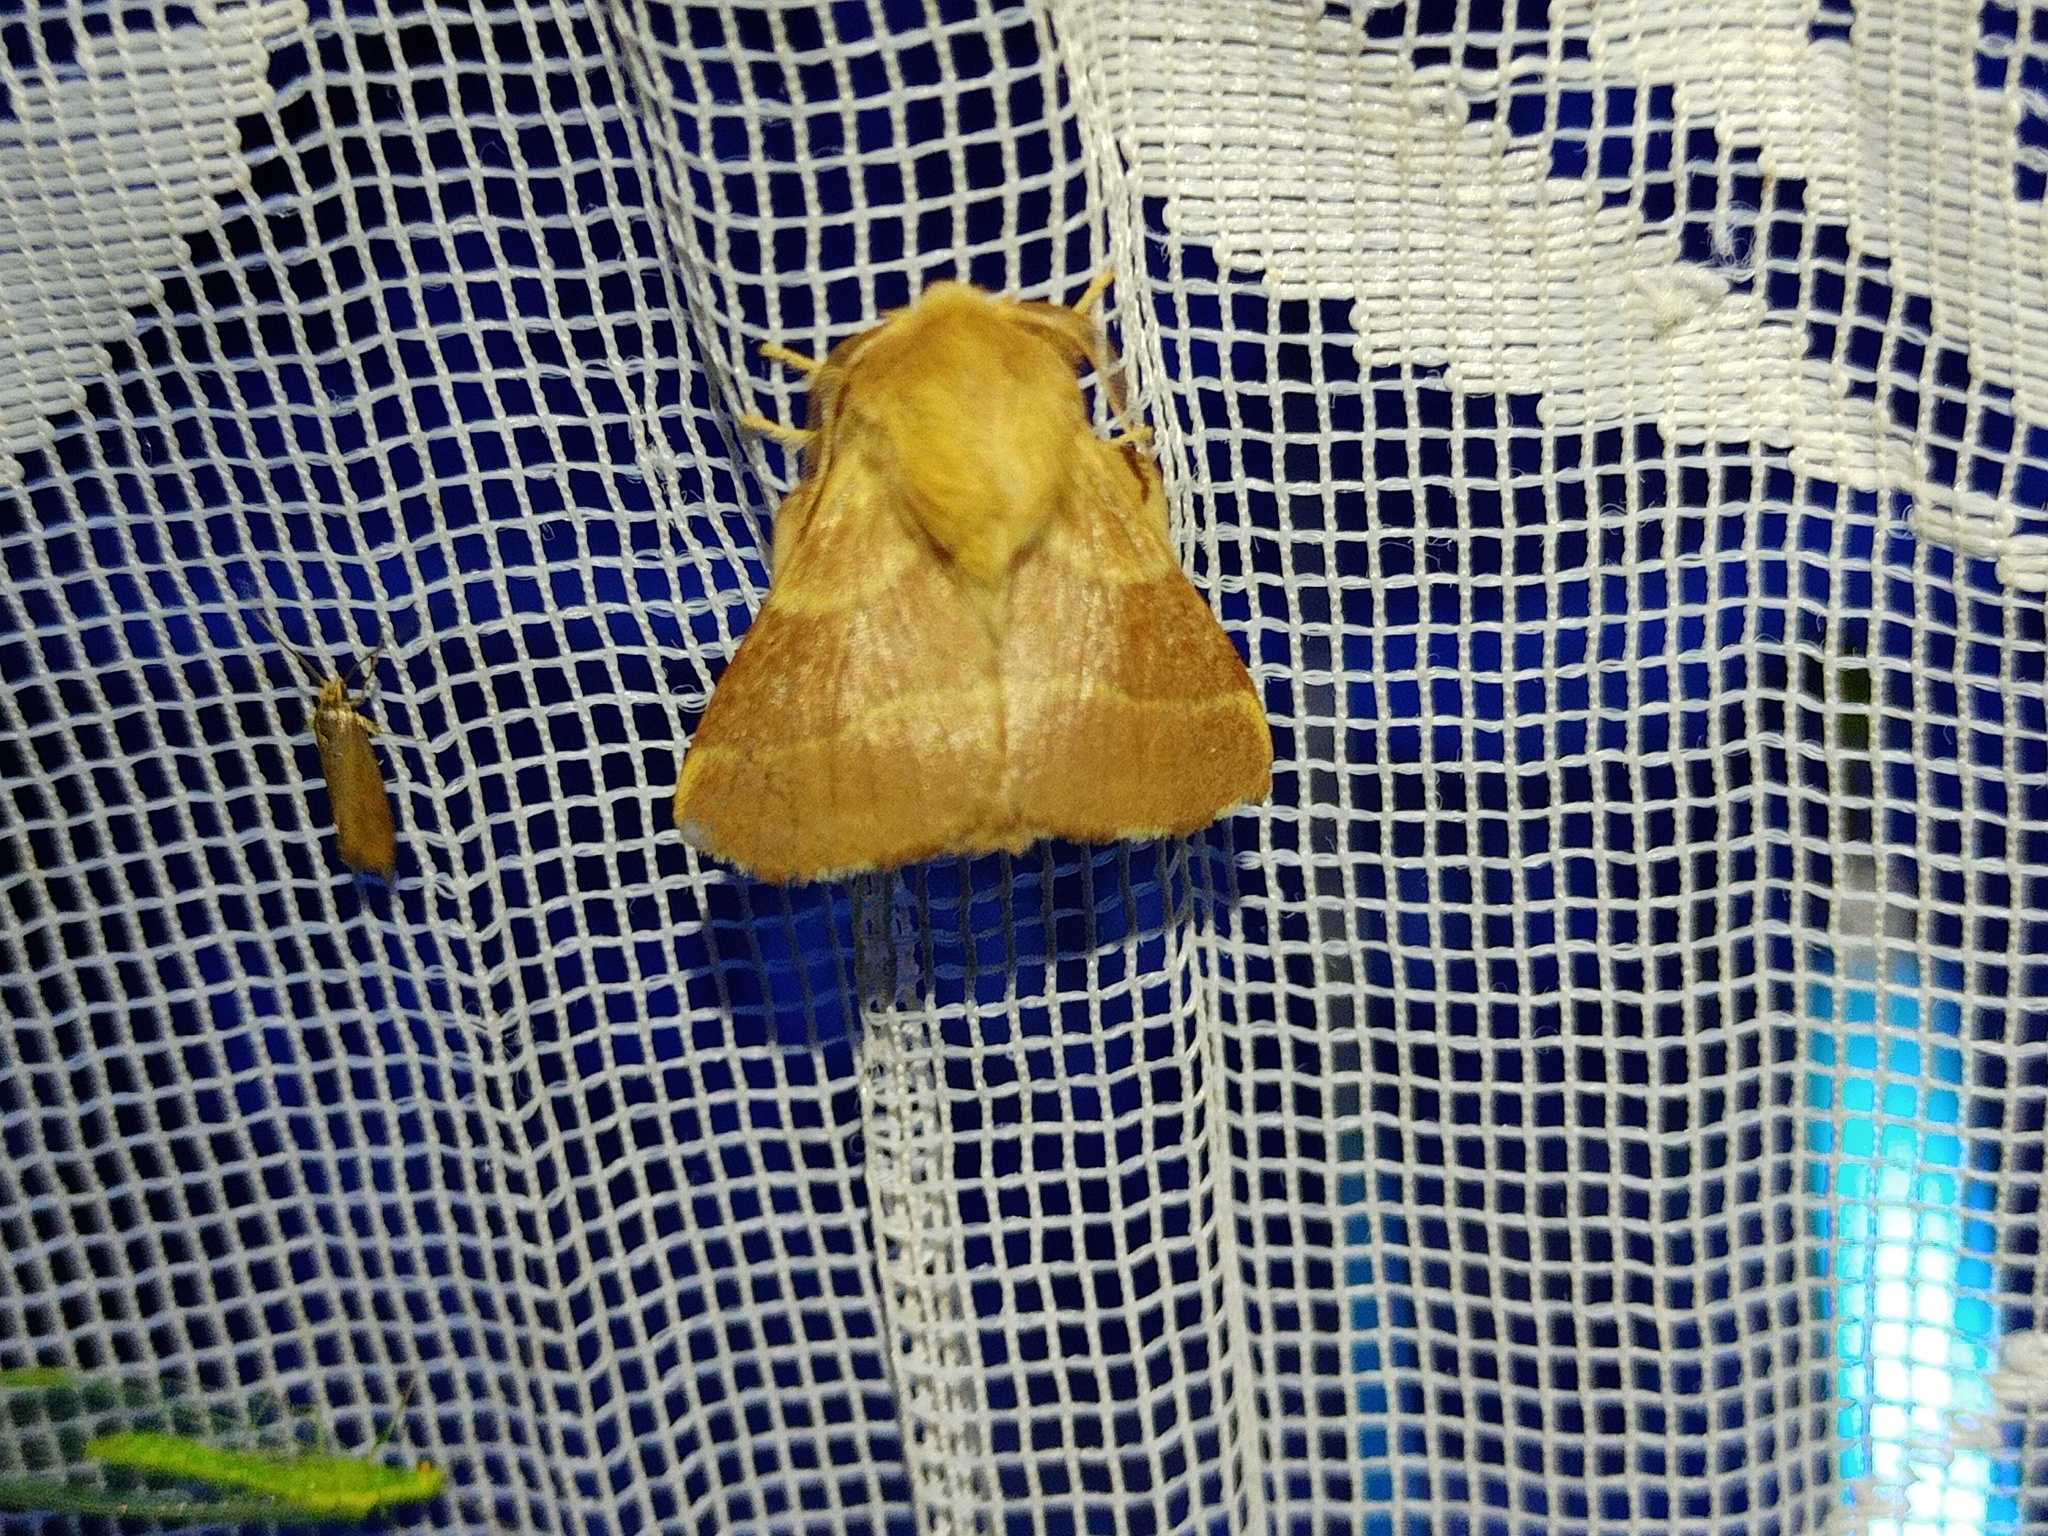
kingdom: Animalia
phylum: Arthropoda
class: Insecta
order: Lepidoptera
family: Lasiocampidae
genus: Malacosoma
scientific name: Malacosoma neustria
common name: The lackey
